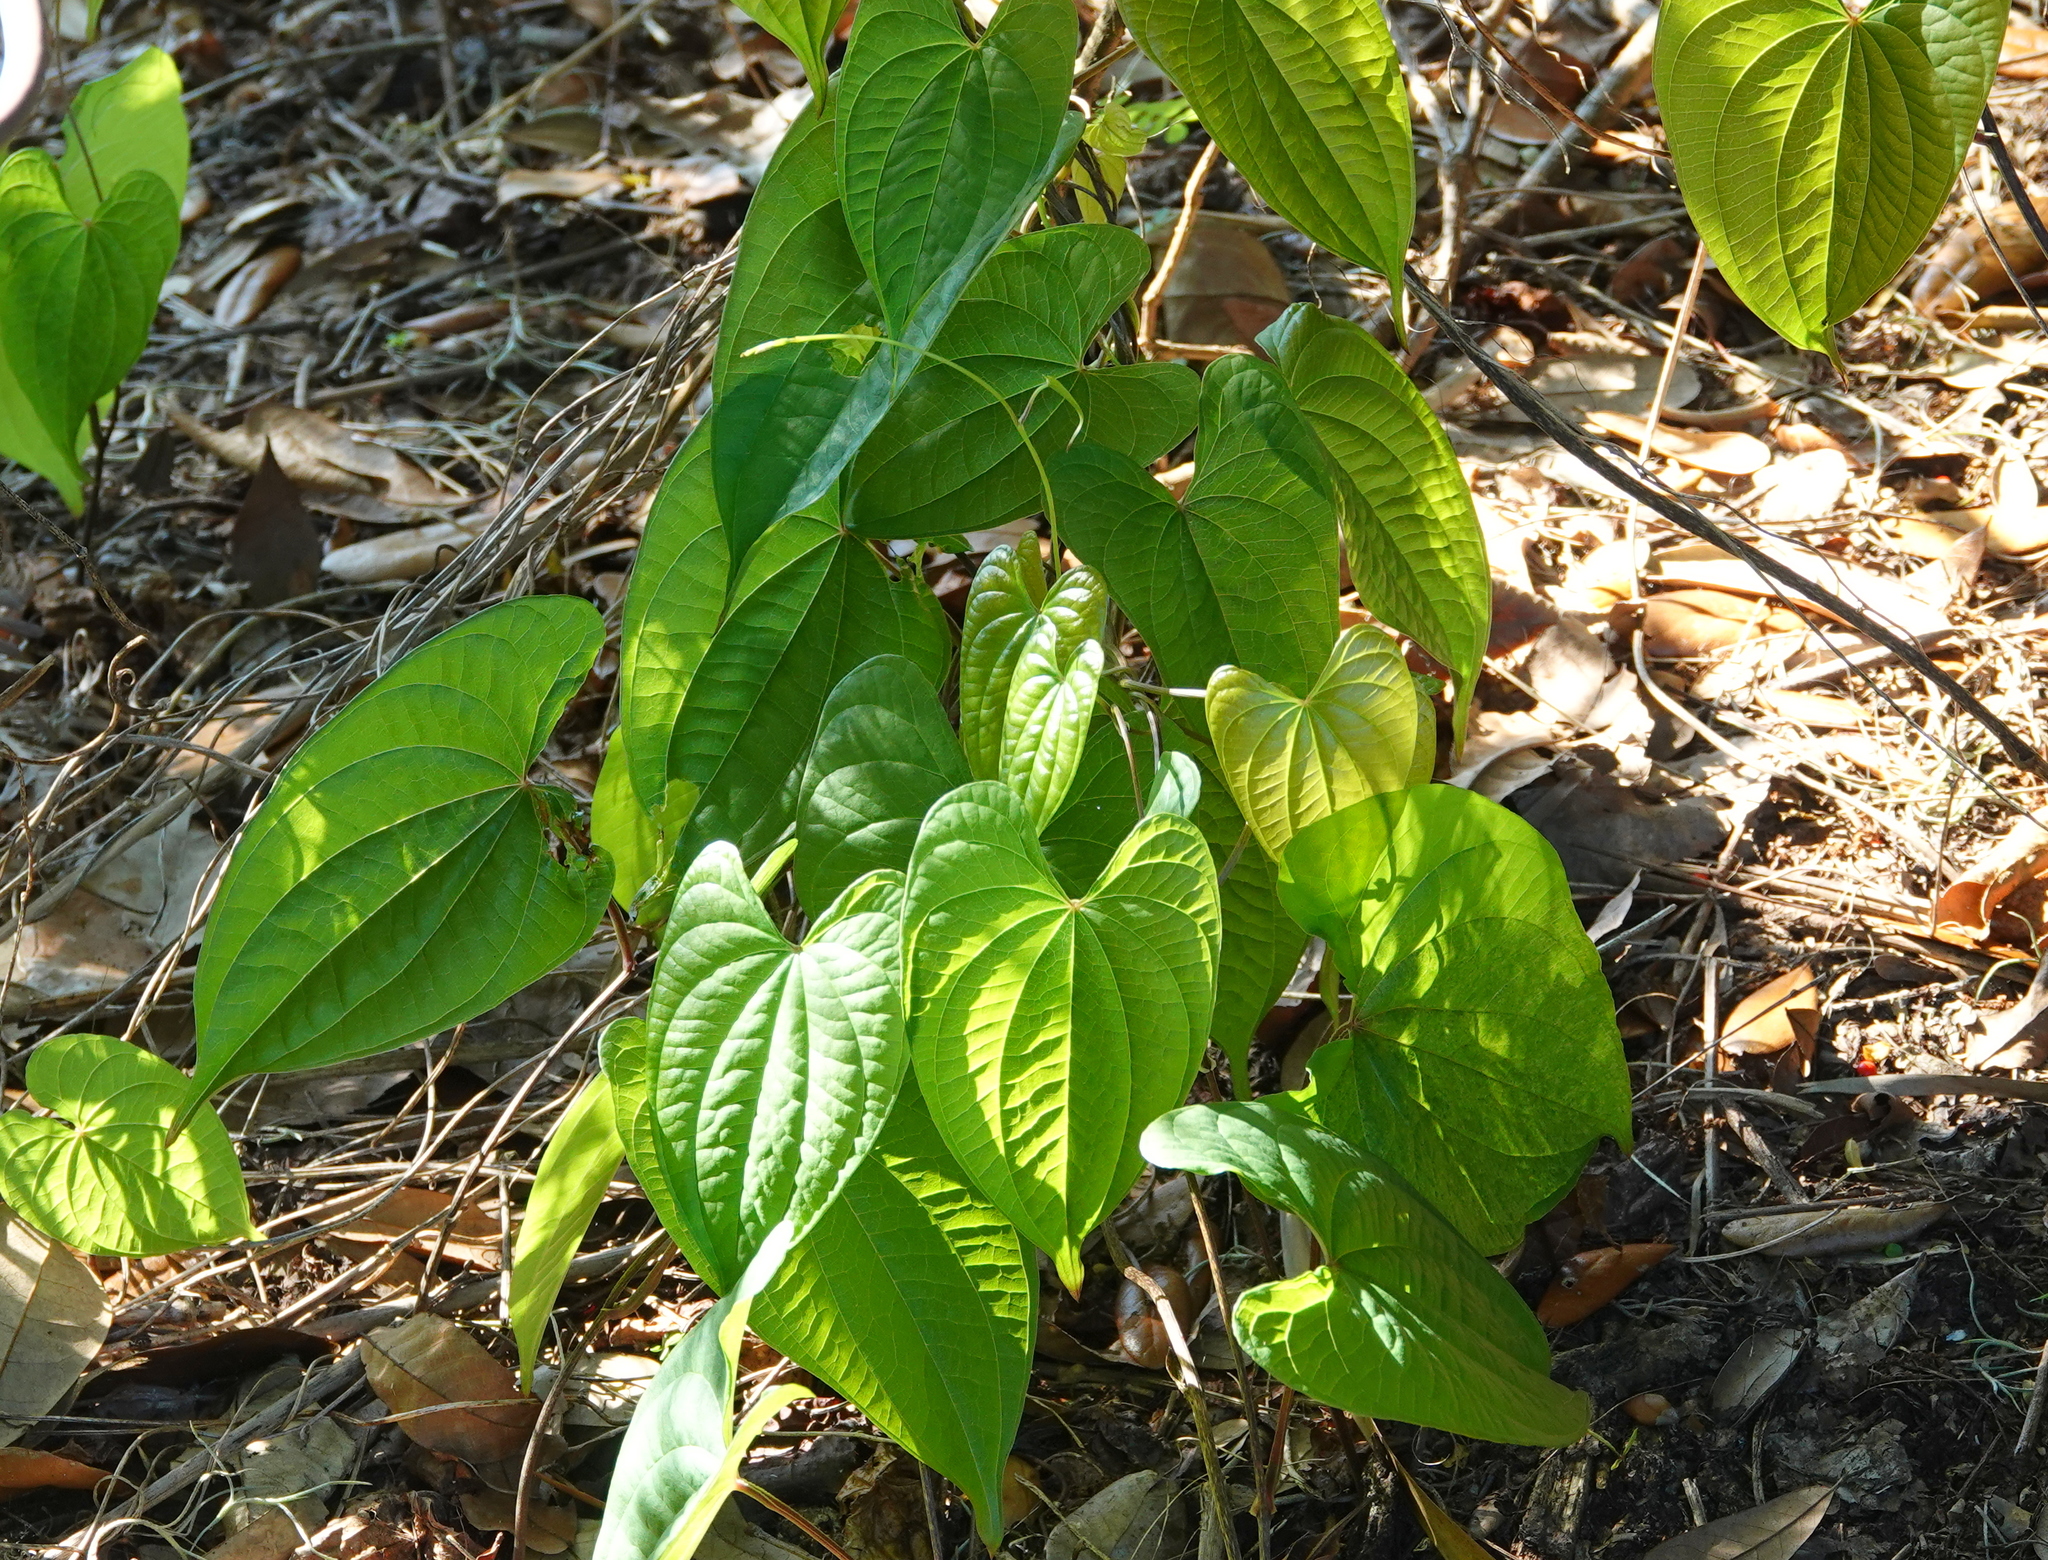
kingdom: Plantae
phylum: Tracheophyta
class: Liliopsida
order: Dioscoreales
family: Dioscoreaceae
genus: Dioscorea
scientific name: Dioscorea bulbifera
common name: Air yam
